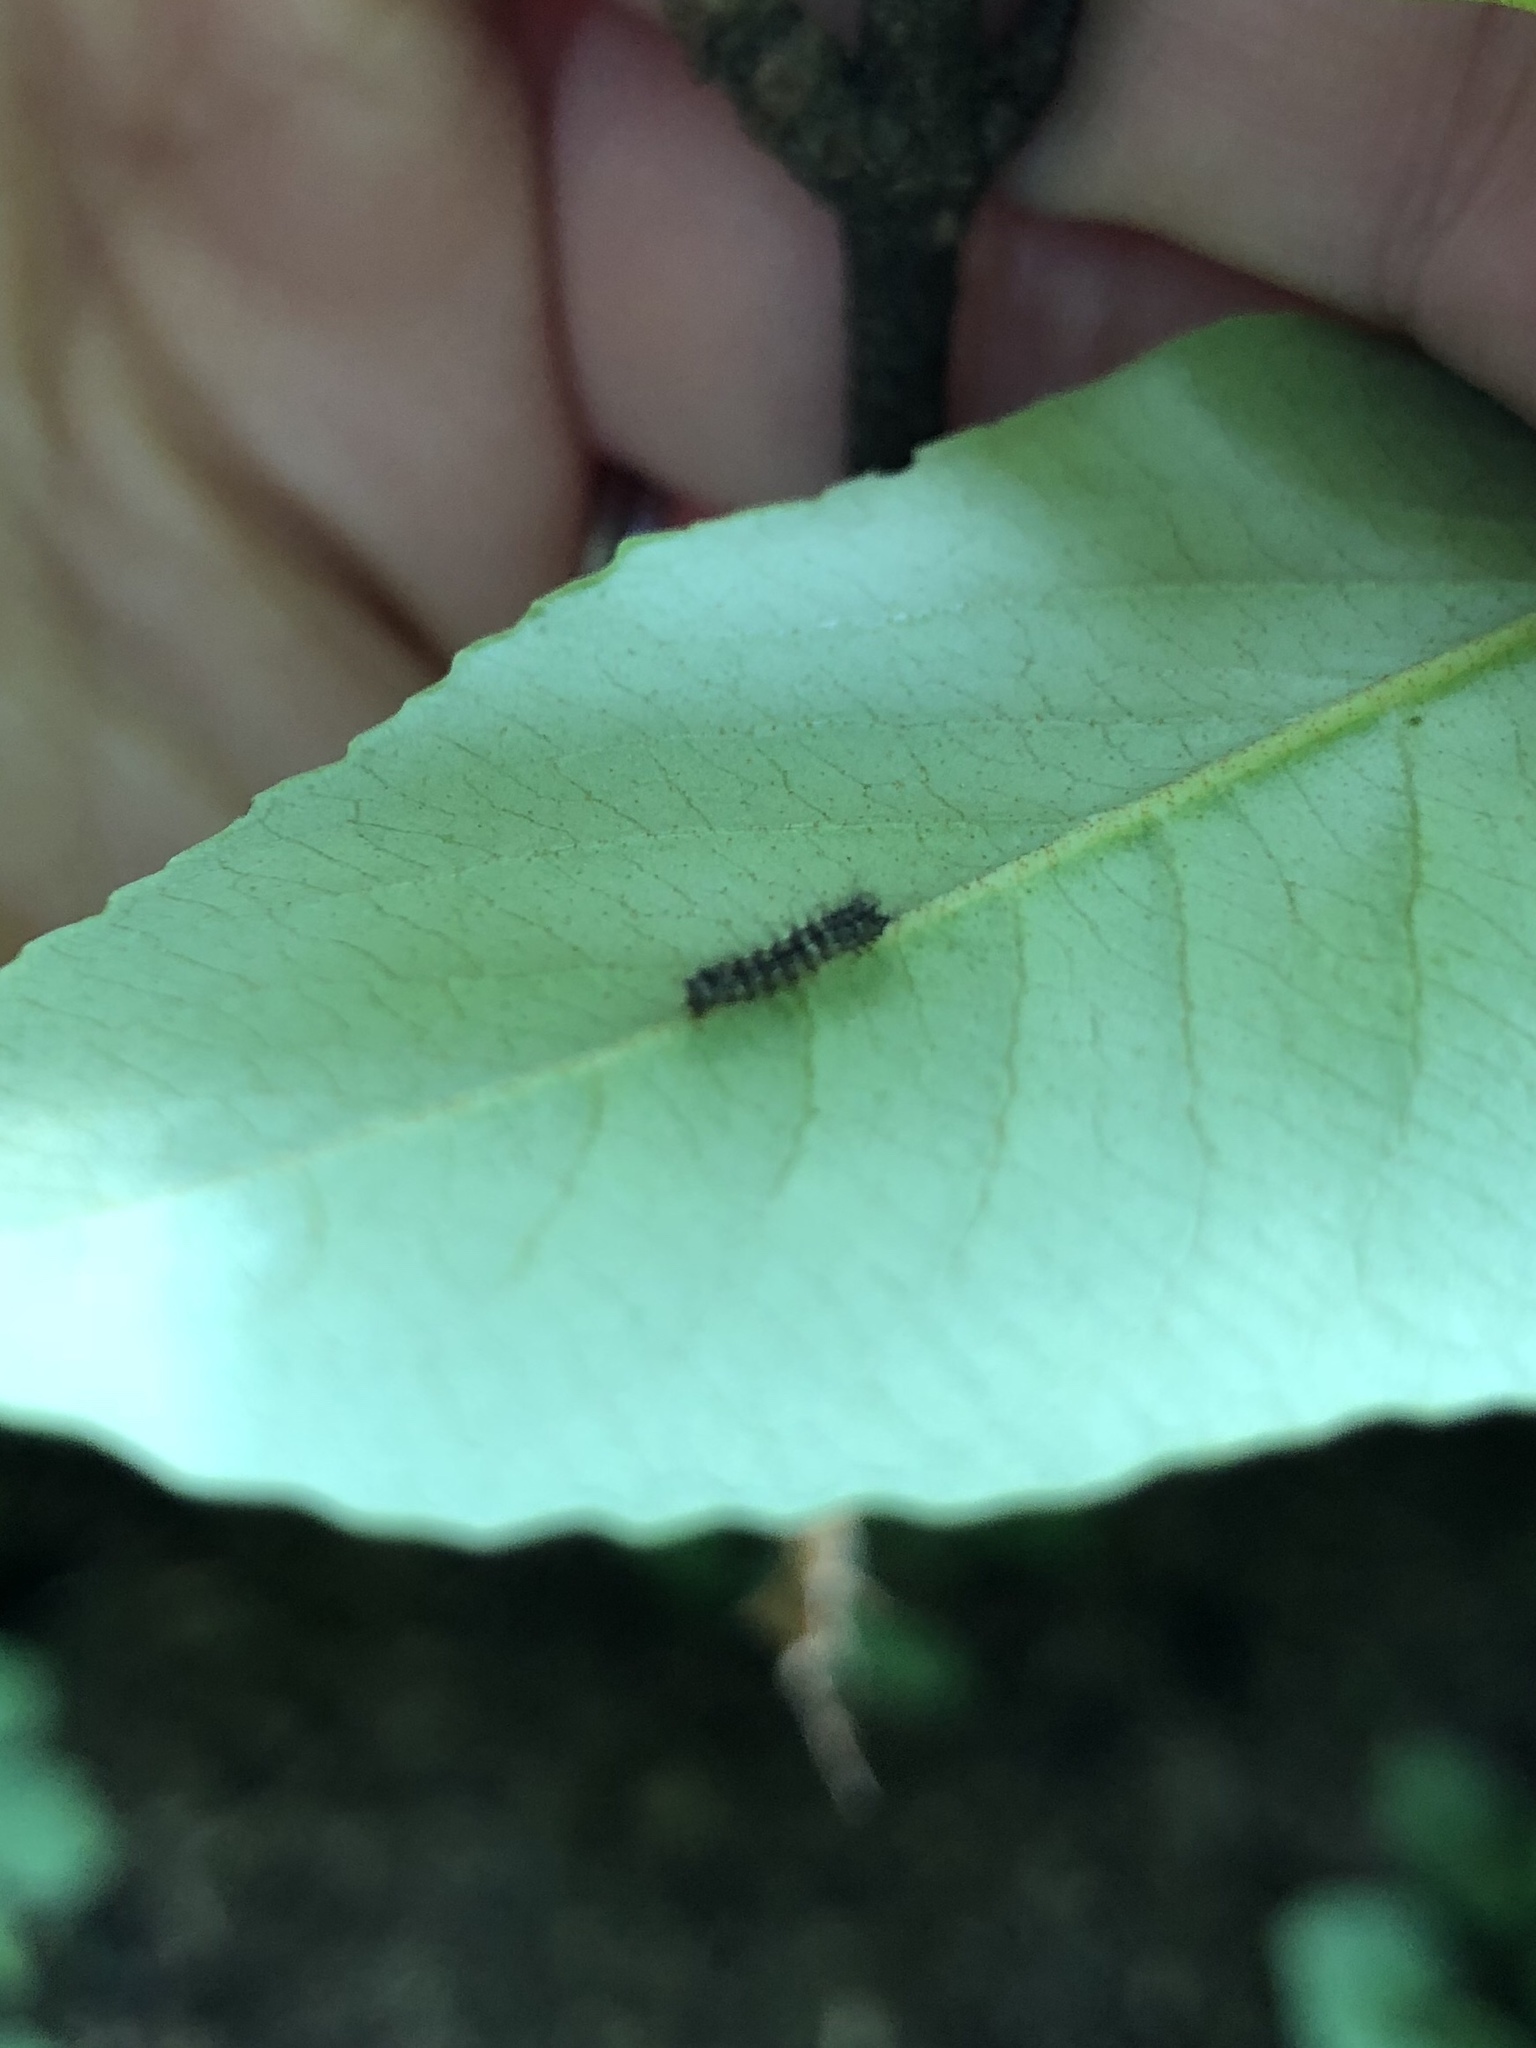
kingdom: Animalia
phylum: Arthropoda
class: Insecta
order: Lepidoptera
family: Erebidae
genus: Lymantria
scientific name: Lymantria dispar
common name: Gypsy moth
